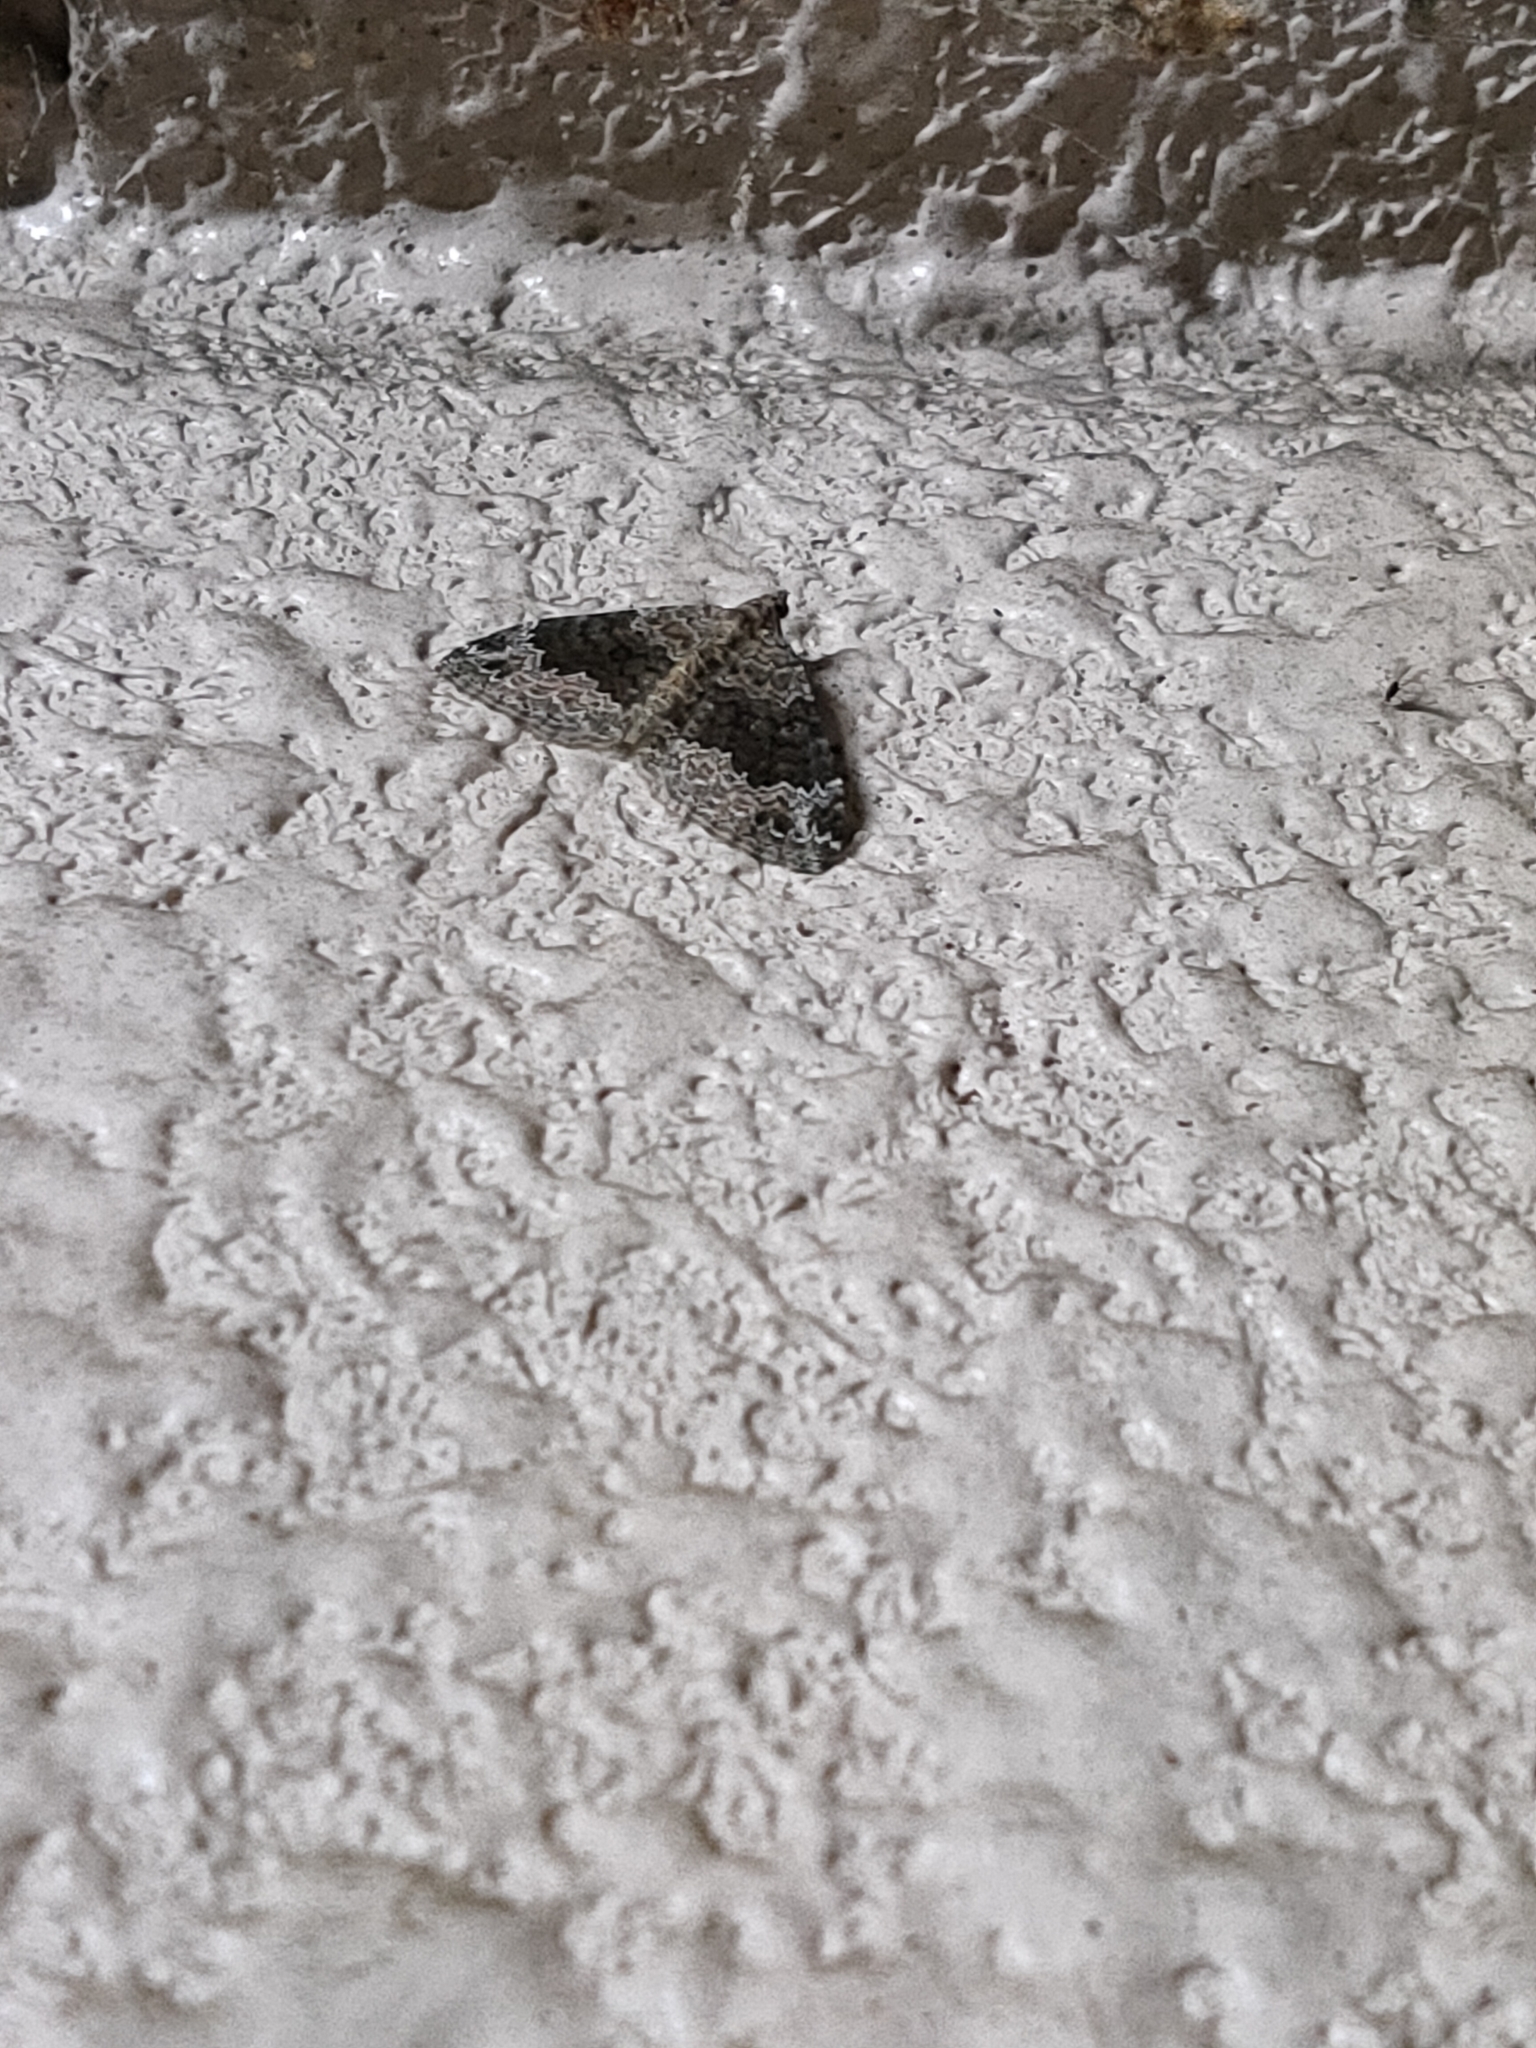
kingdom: Animalia
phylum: Arthropoda
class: Insecta
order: Lepidoptera
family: Geometridae
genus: Xanthorhoe
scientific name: Xanthorhoe saturata
